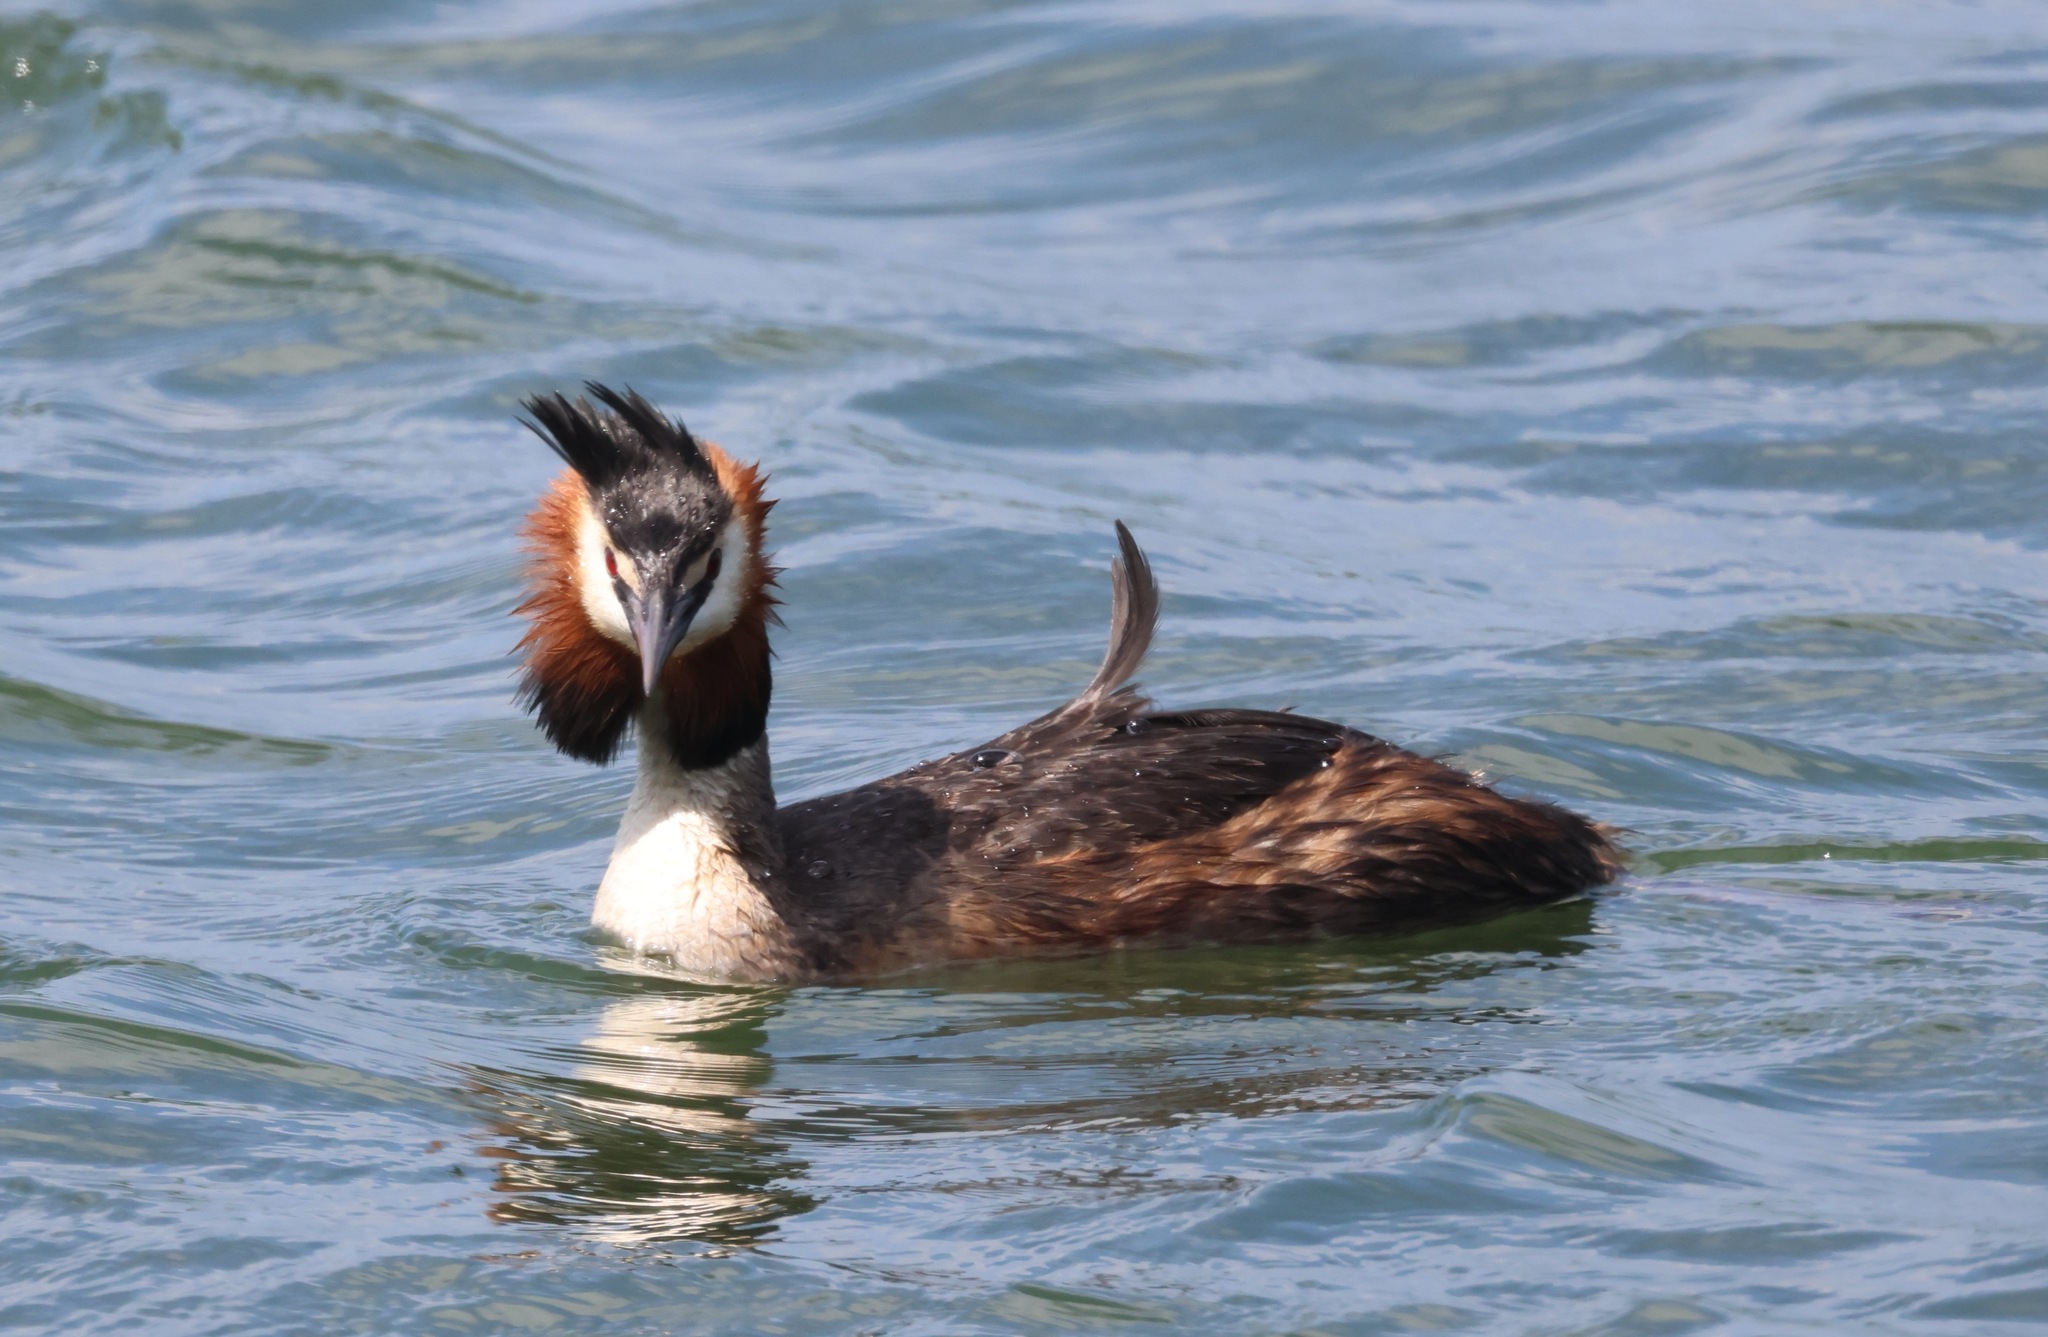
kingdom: Animalia
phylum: Chordata
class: Aves
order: Podicipediformes
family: Podicipedidae
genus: Podiceps
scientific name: Podiceps cristatus
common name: Great crested grebe
